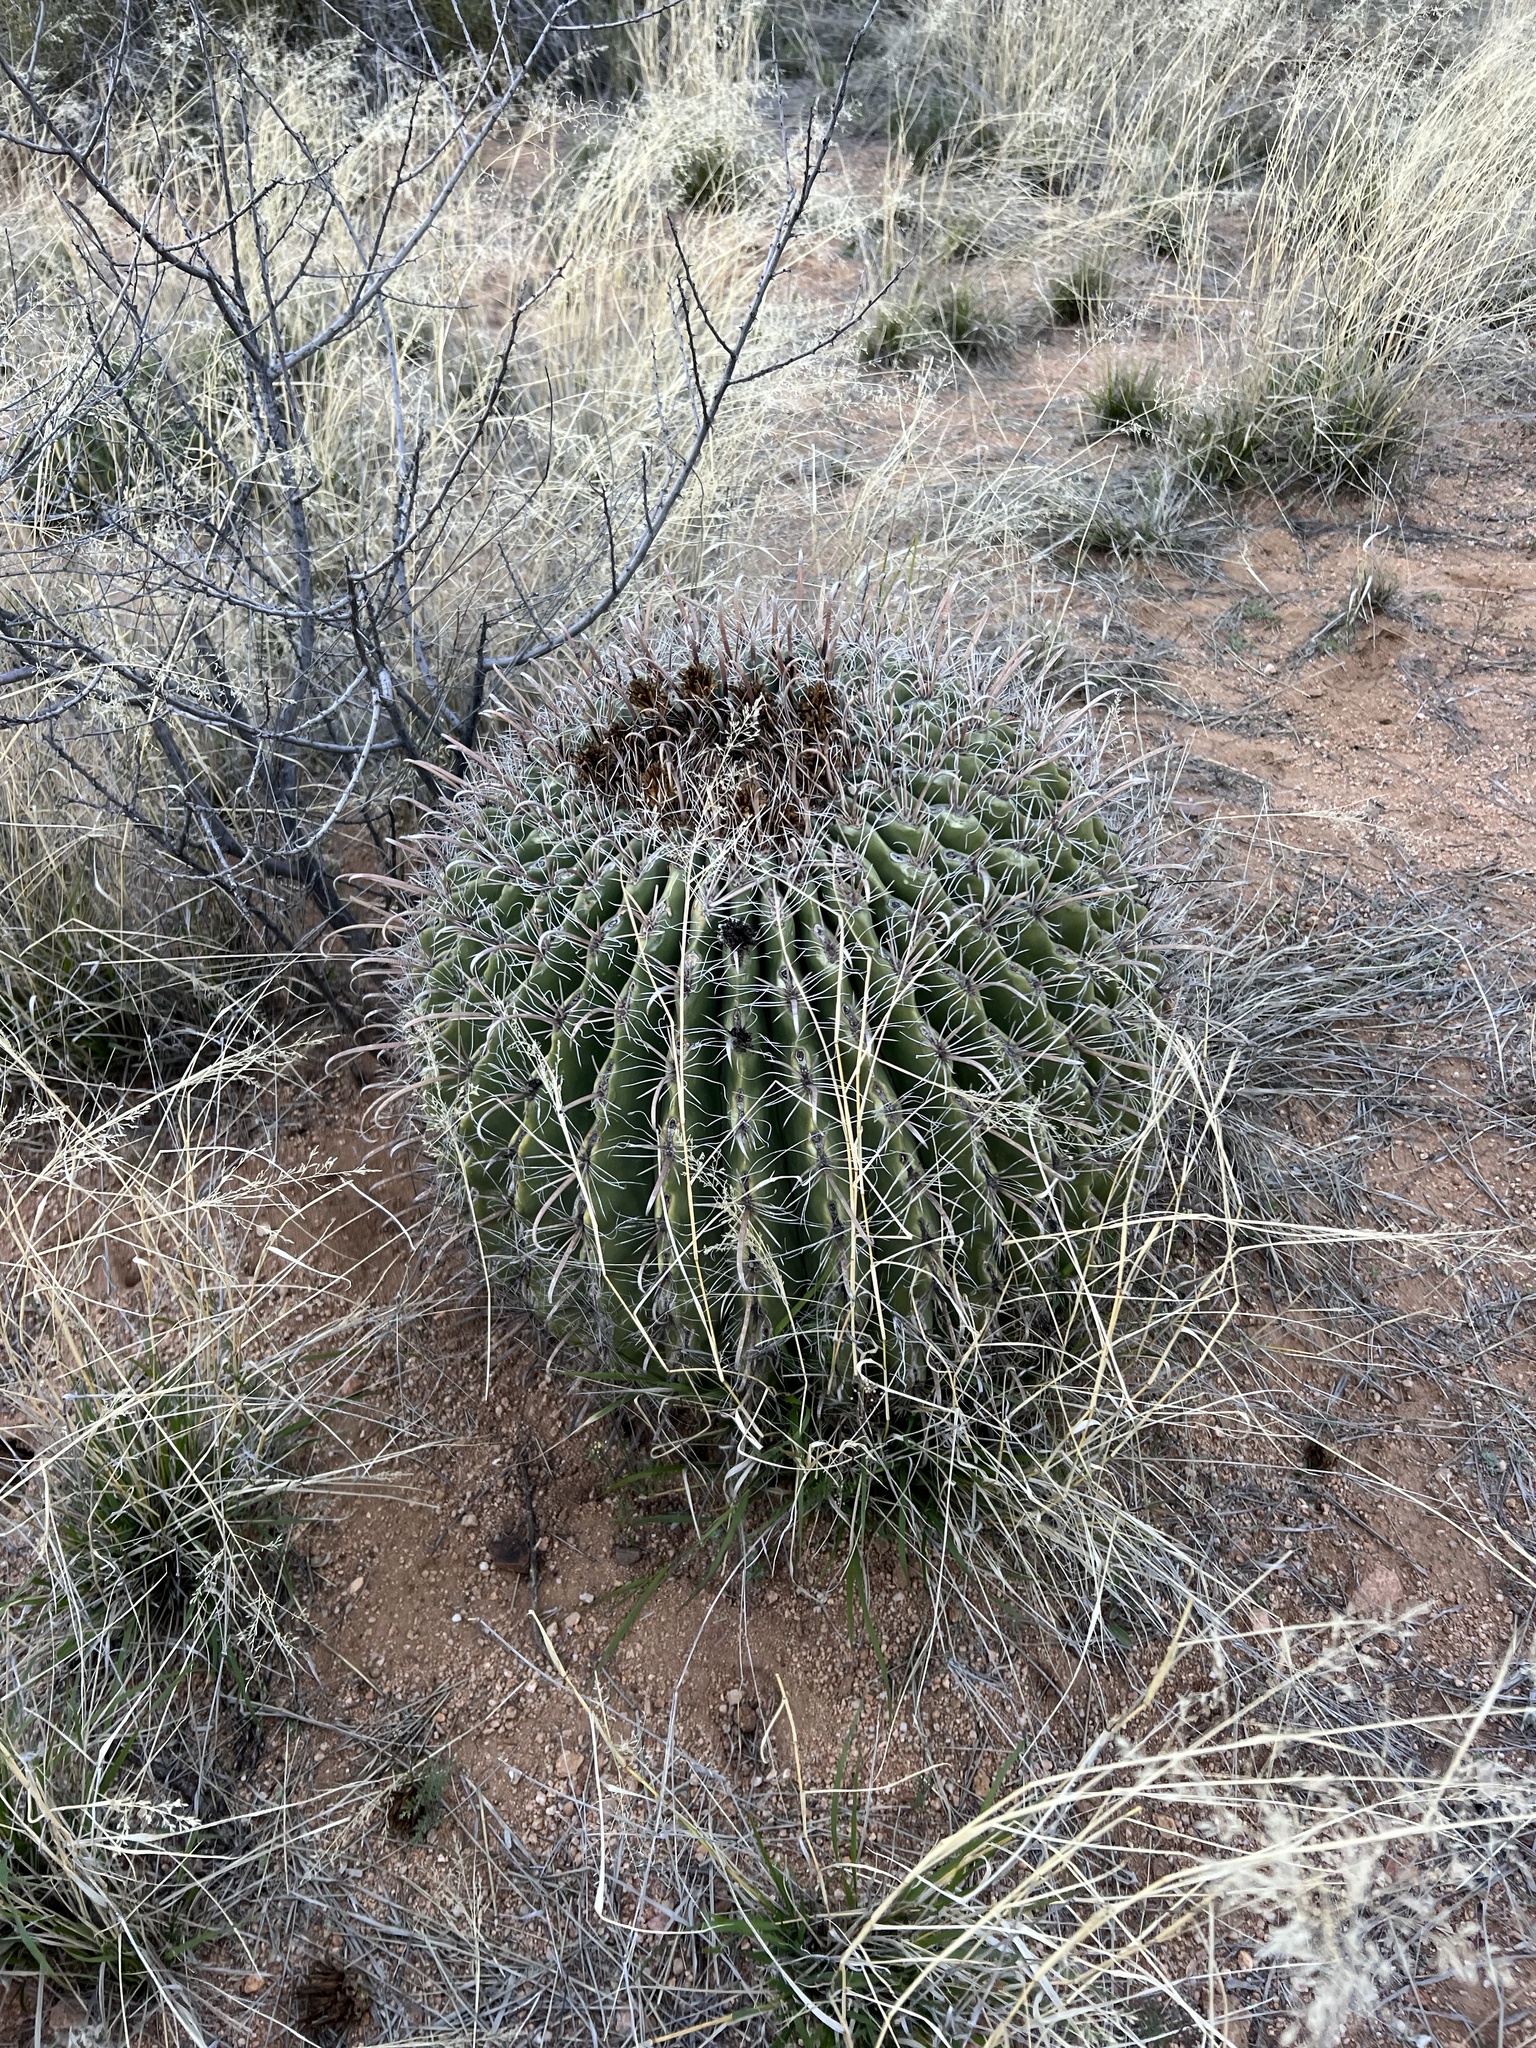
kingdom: Plantae
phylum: Tracheophyta
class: Magnoliopsida
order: Caryophyllales
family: Cactaceae
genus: Ferocactus
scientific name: Ferocactus wislizeni
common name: Candy barrel cactus
